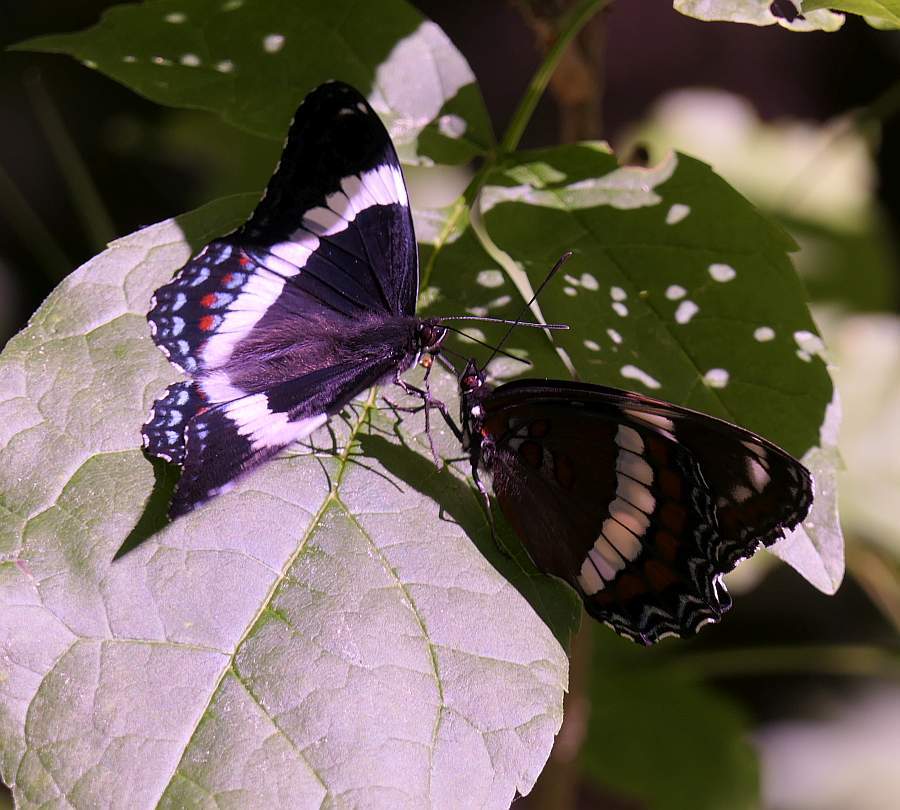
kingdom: Animalia
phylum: Arthropoda
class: Insecta
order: Lepidoptera
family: Nymphalidae
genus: Limenitis
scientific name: Limenitis arthemis
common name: Red-spotted admiral
